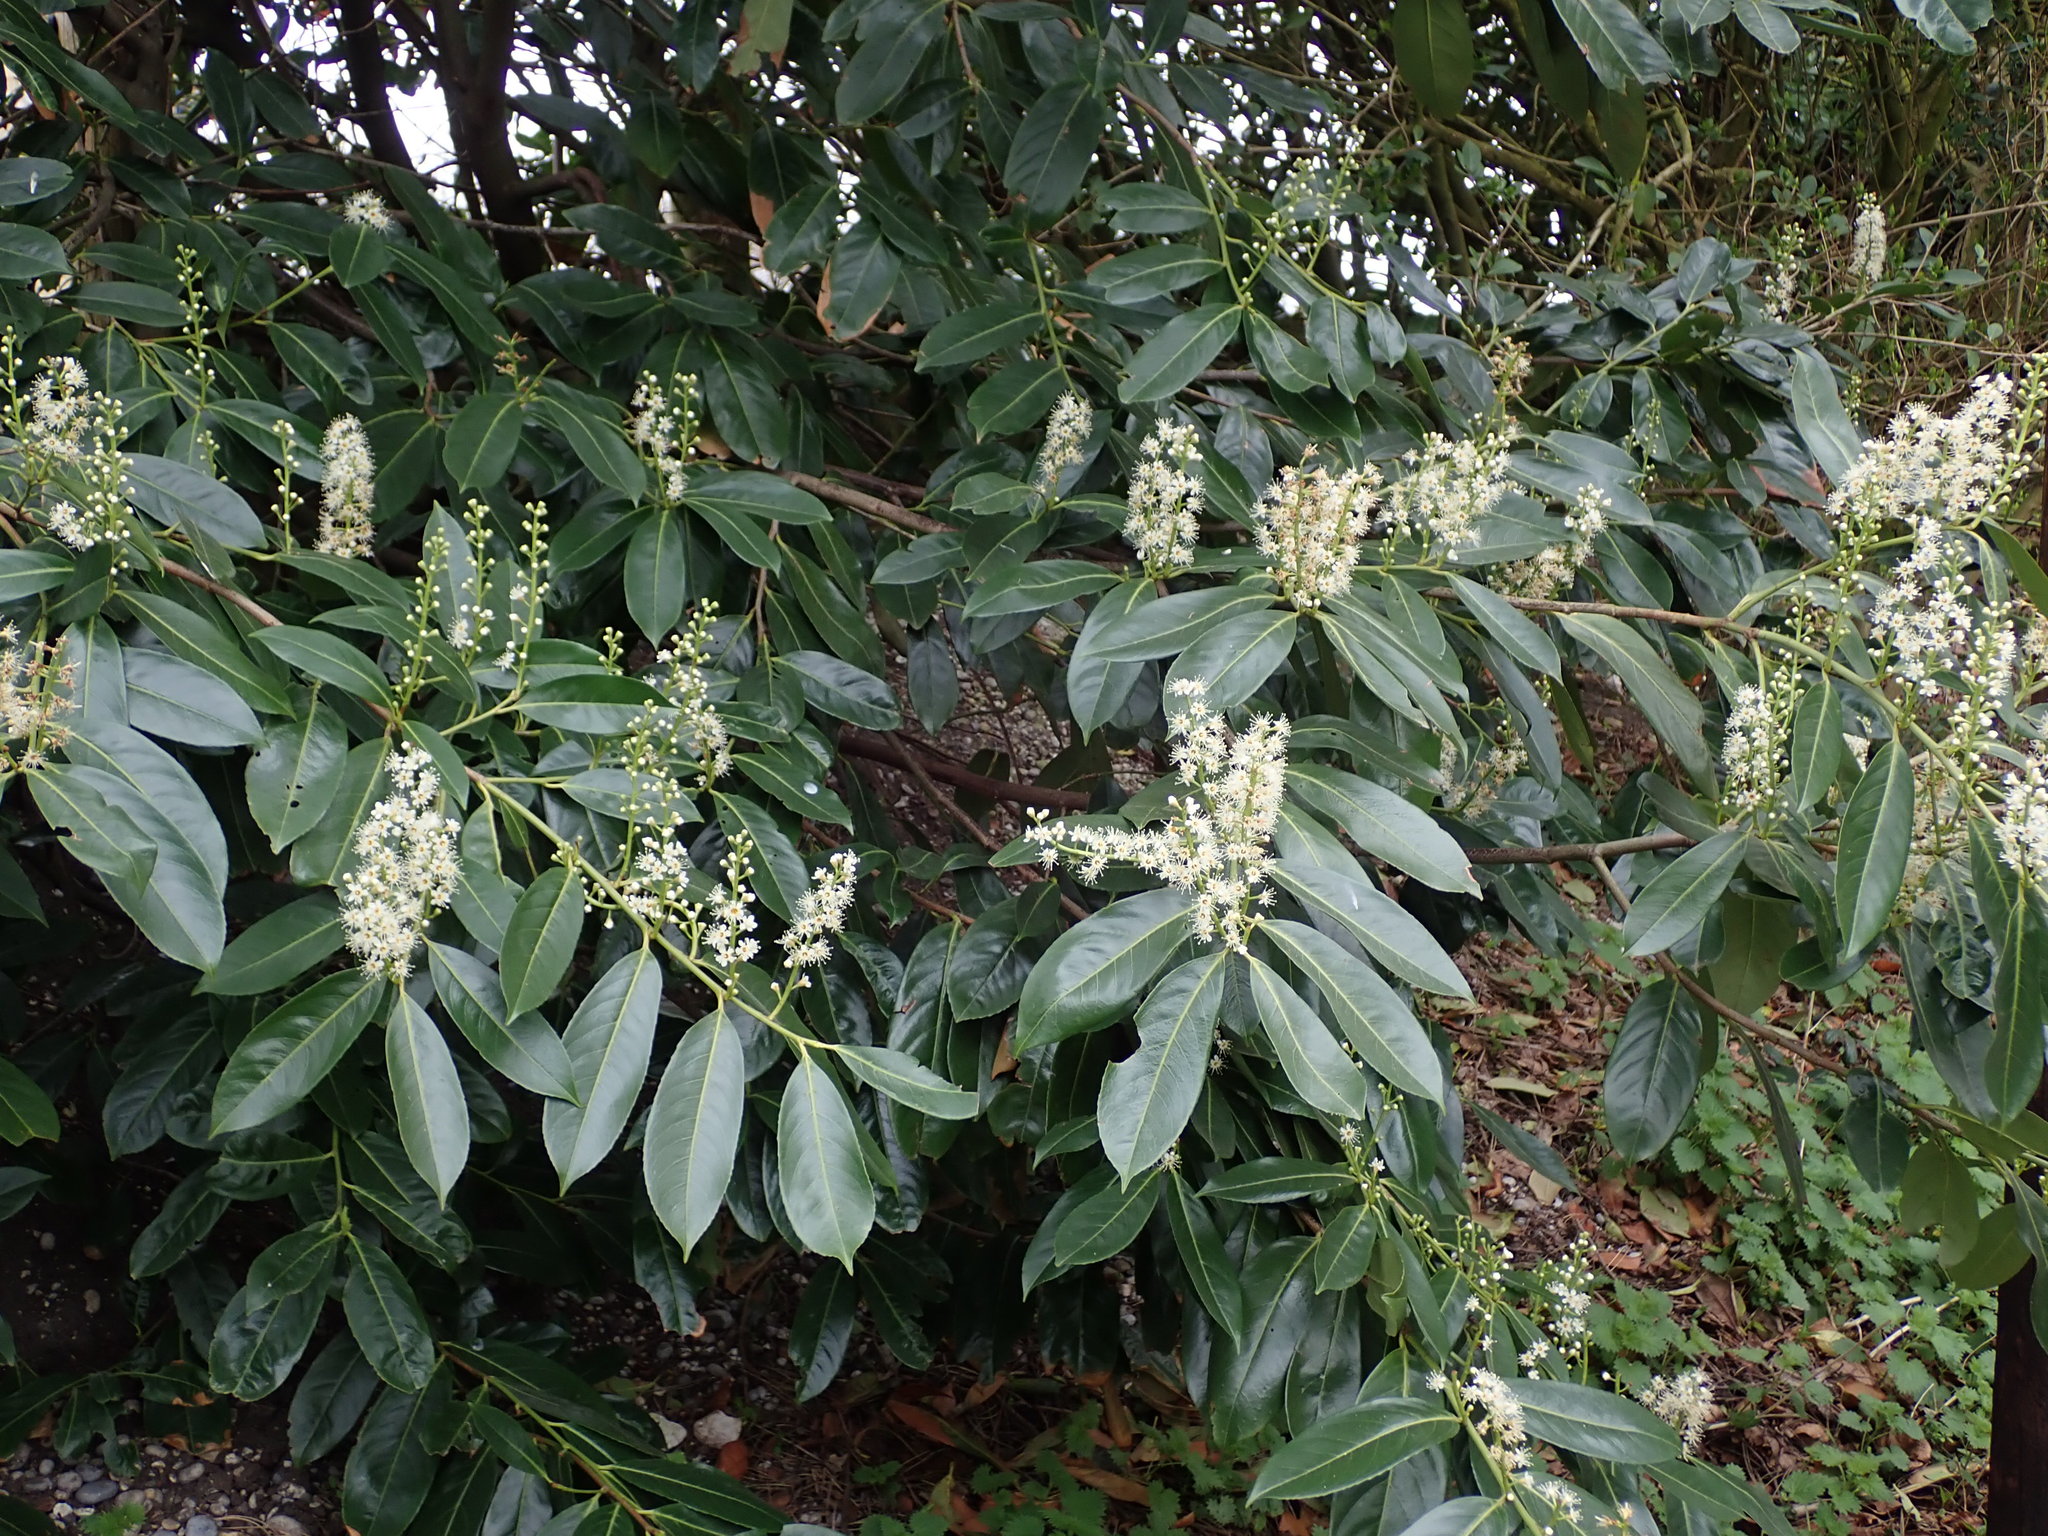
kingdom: Plantae
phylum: Tracheophyta
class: Magnoliopsida
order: Rosales
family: Rosaceae
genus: Prunus
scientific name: Prunus laurocerasus
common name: Cherry laurel
